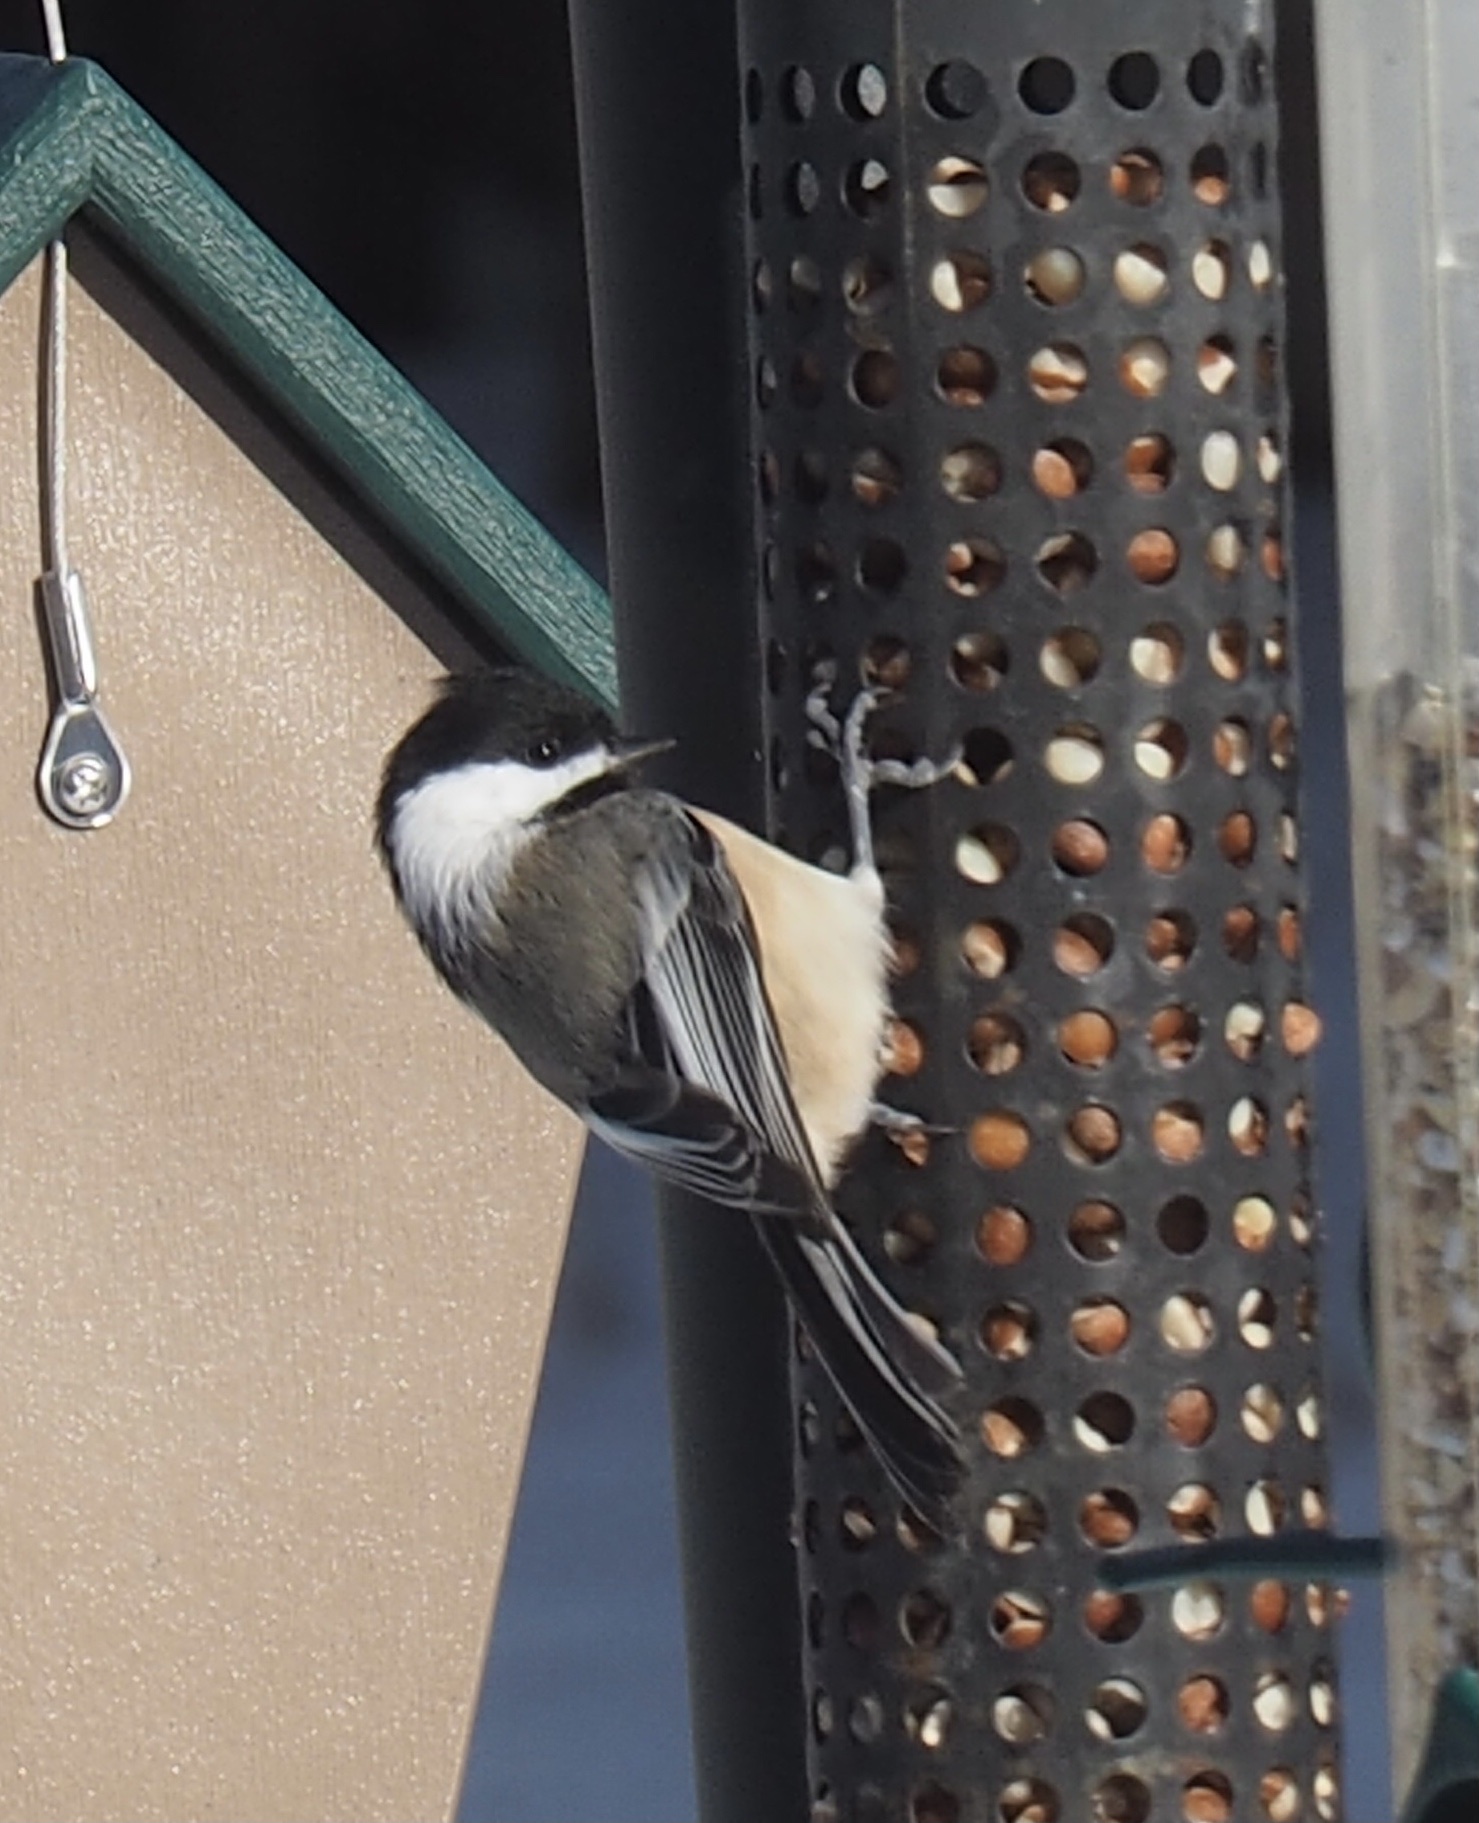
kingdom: Animalia
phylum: Chordata
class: Aves
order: Passeriformes
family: Paridae
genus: Poecile
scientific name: Poecile atricapillus
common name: Black-capped chickadee
